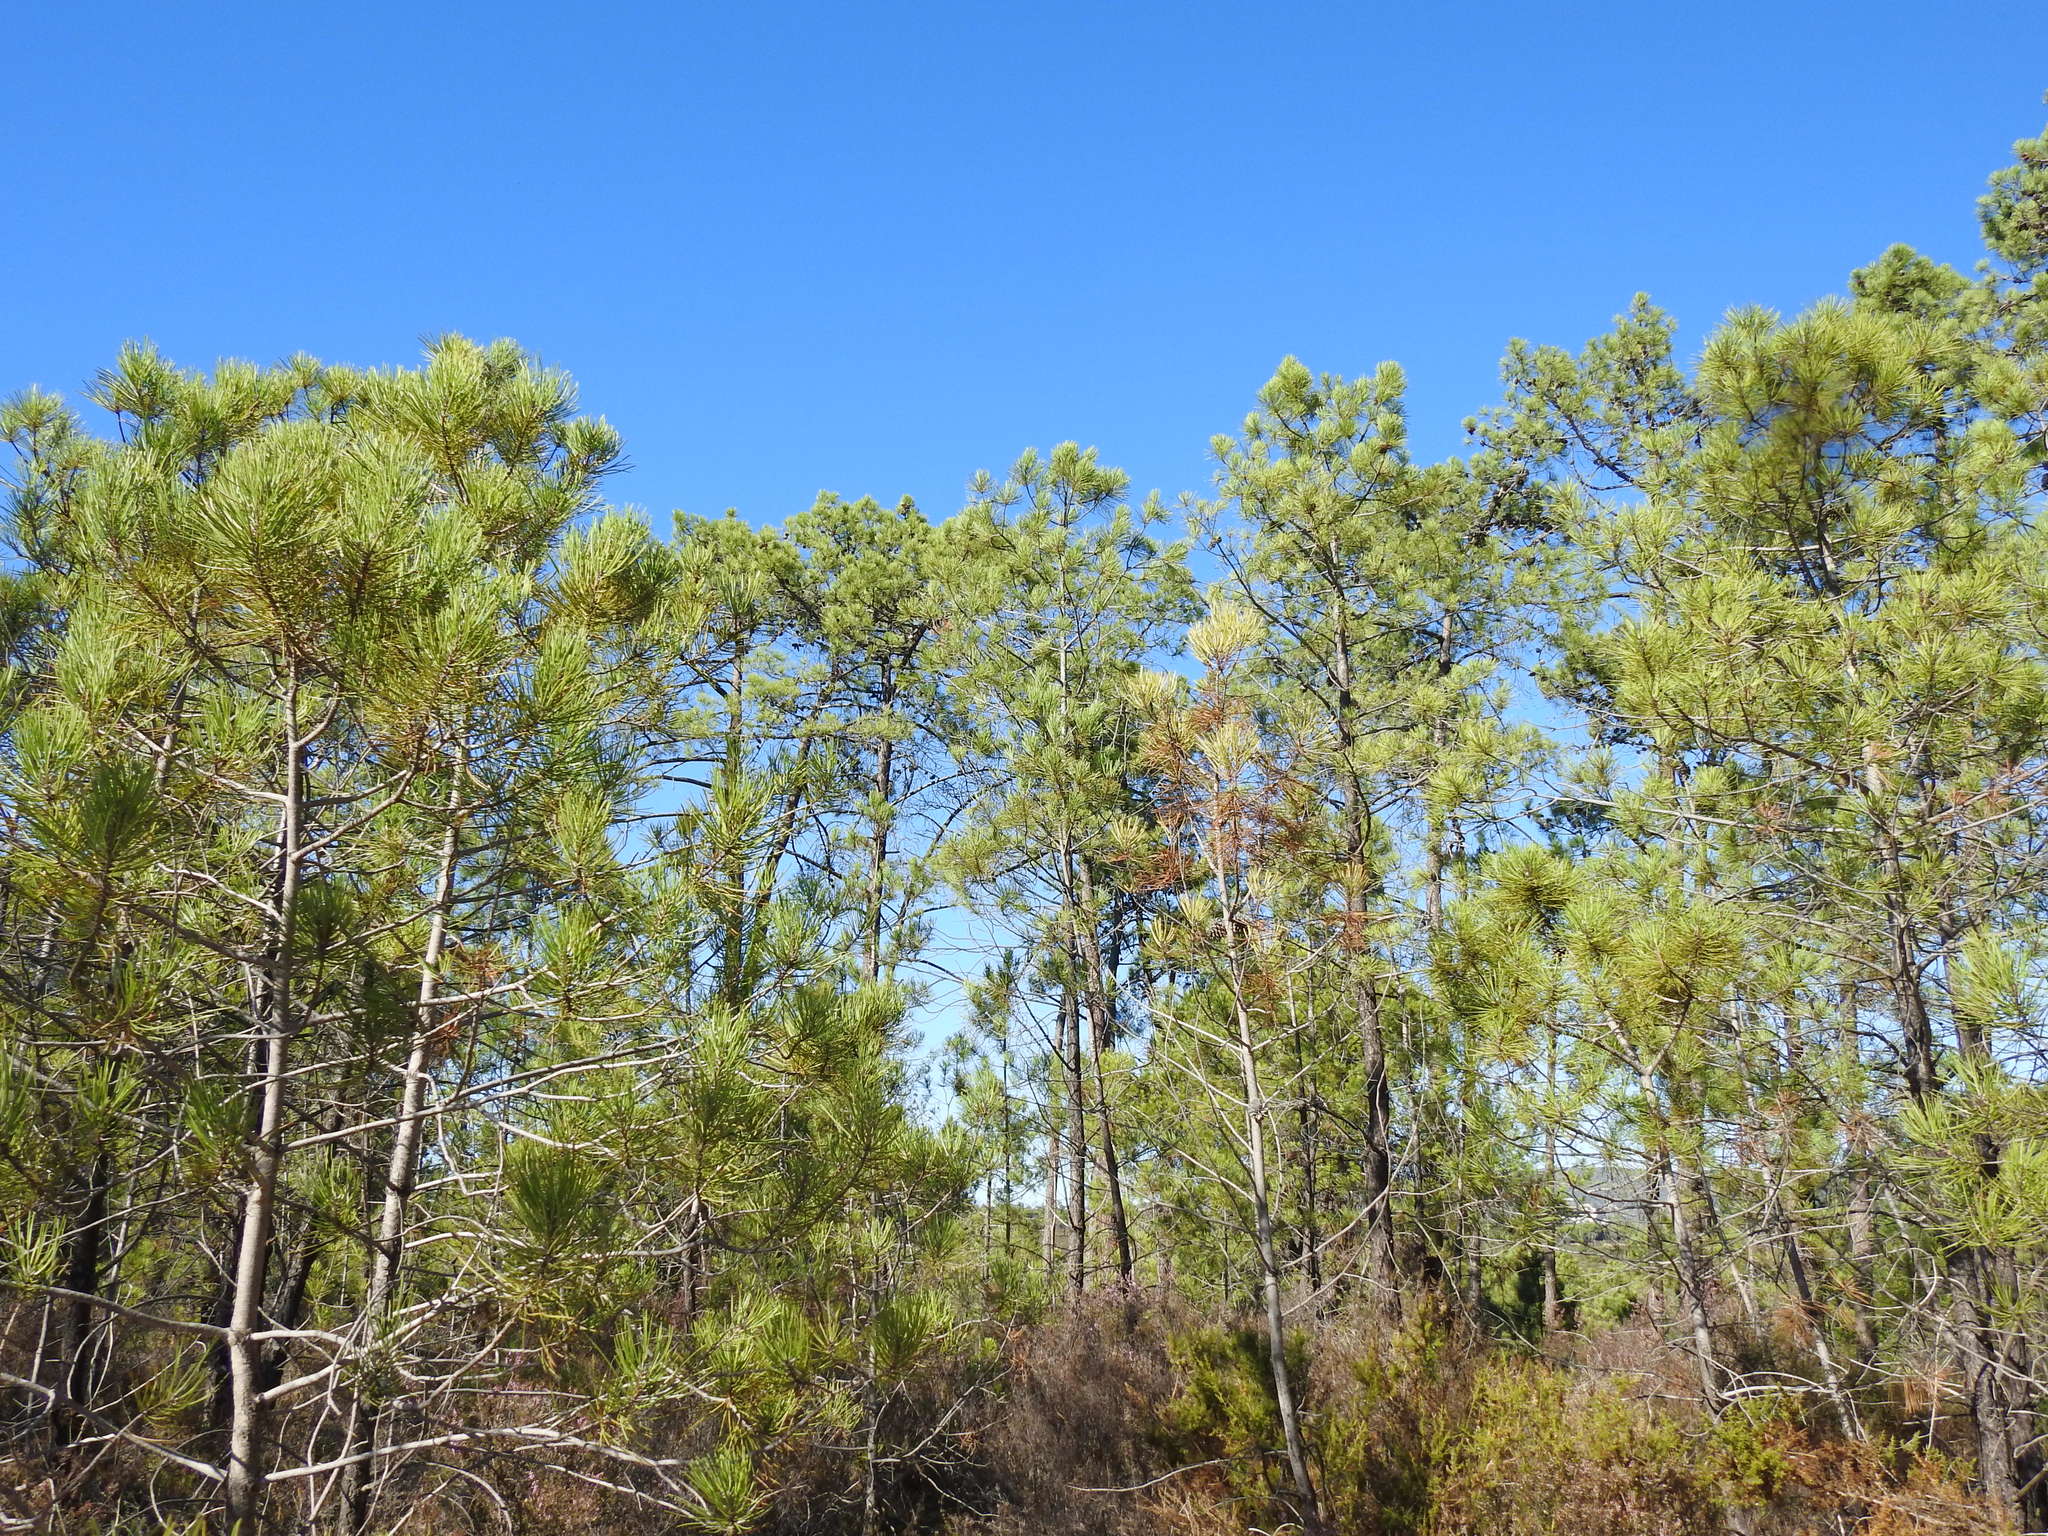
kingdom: Plantae
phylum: Tracheophyta
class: Pinopsida
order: Pinales
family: Pinaceae
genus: Pinus
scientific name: Pinus pinaster
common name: Maritime pine
